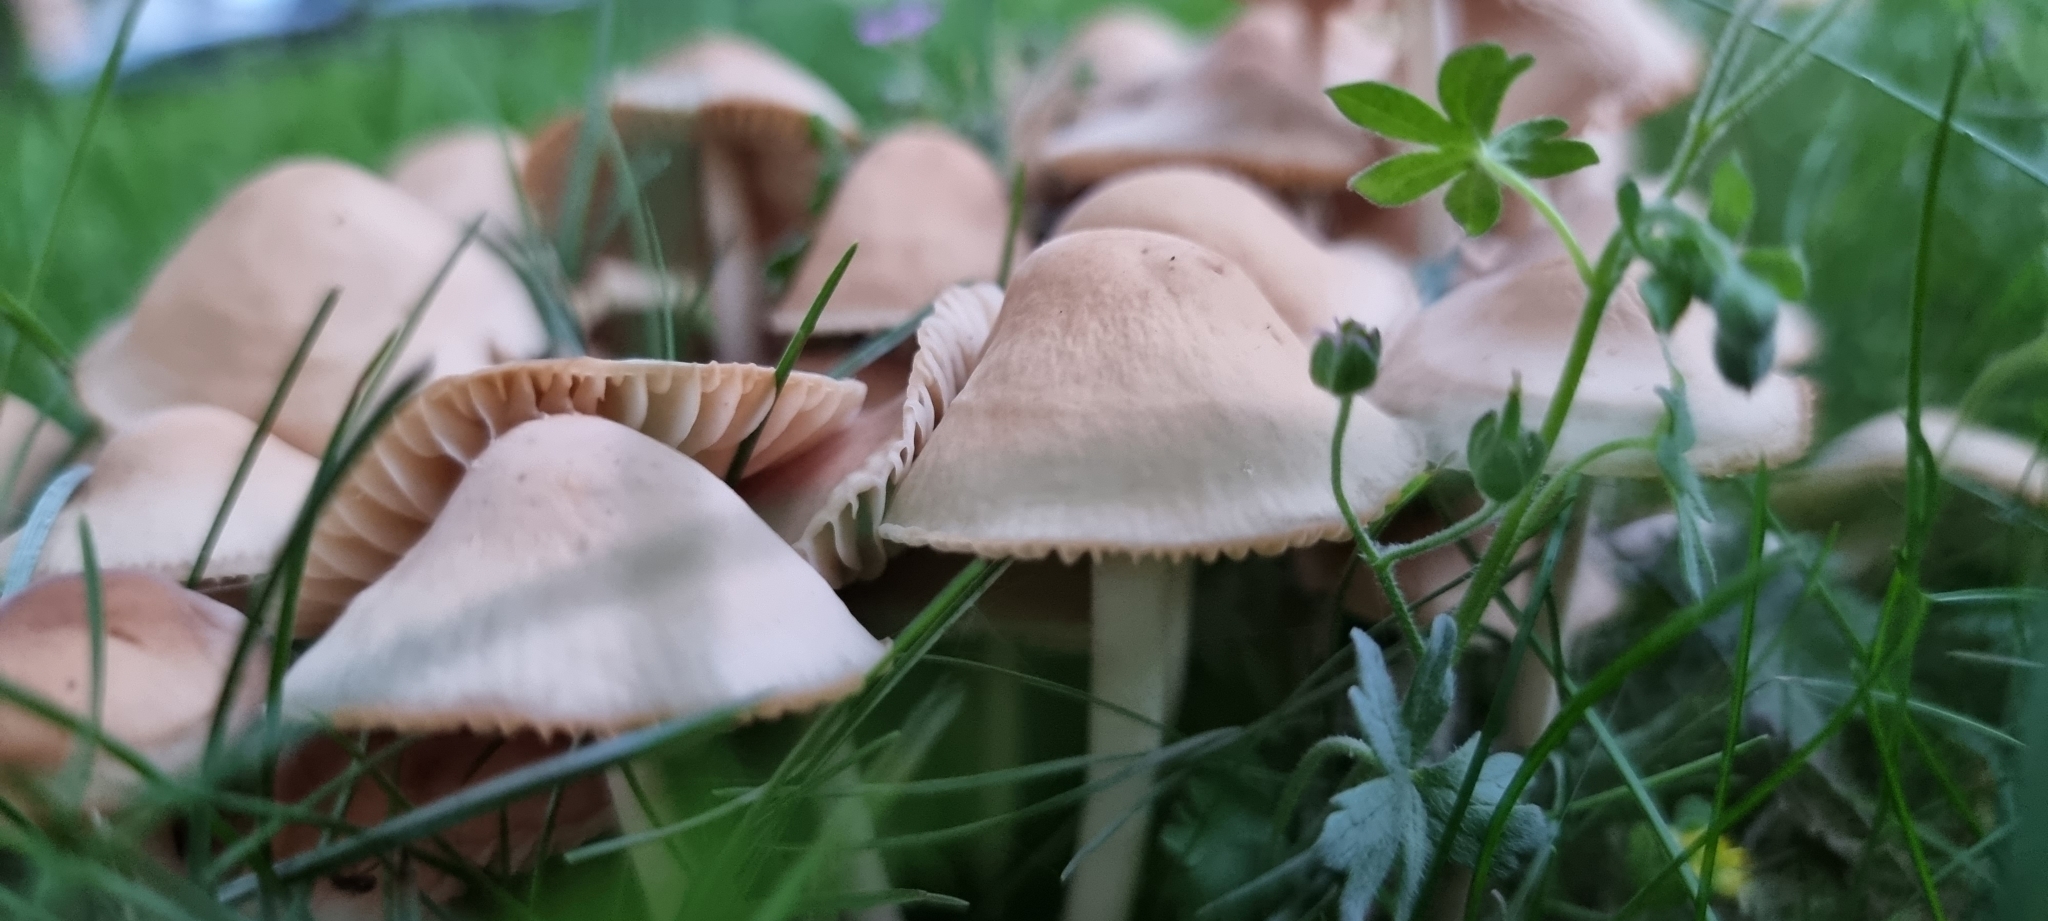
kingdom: Fungi
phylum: Basidiomycota
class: Agaricomycetes
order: Agaricales
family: Marasmiaceae
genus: Marasmius
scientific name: Marasmius oreades
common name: Fairy ring champignon
